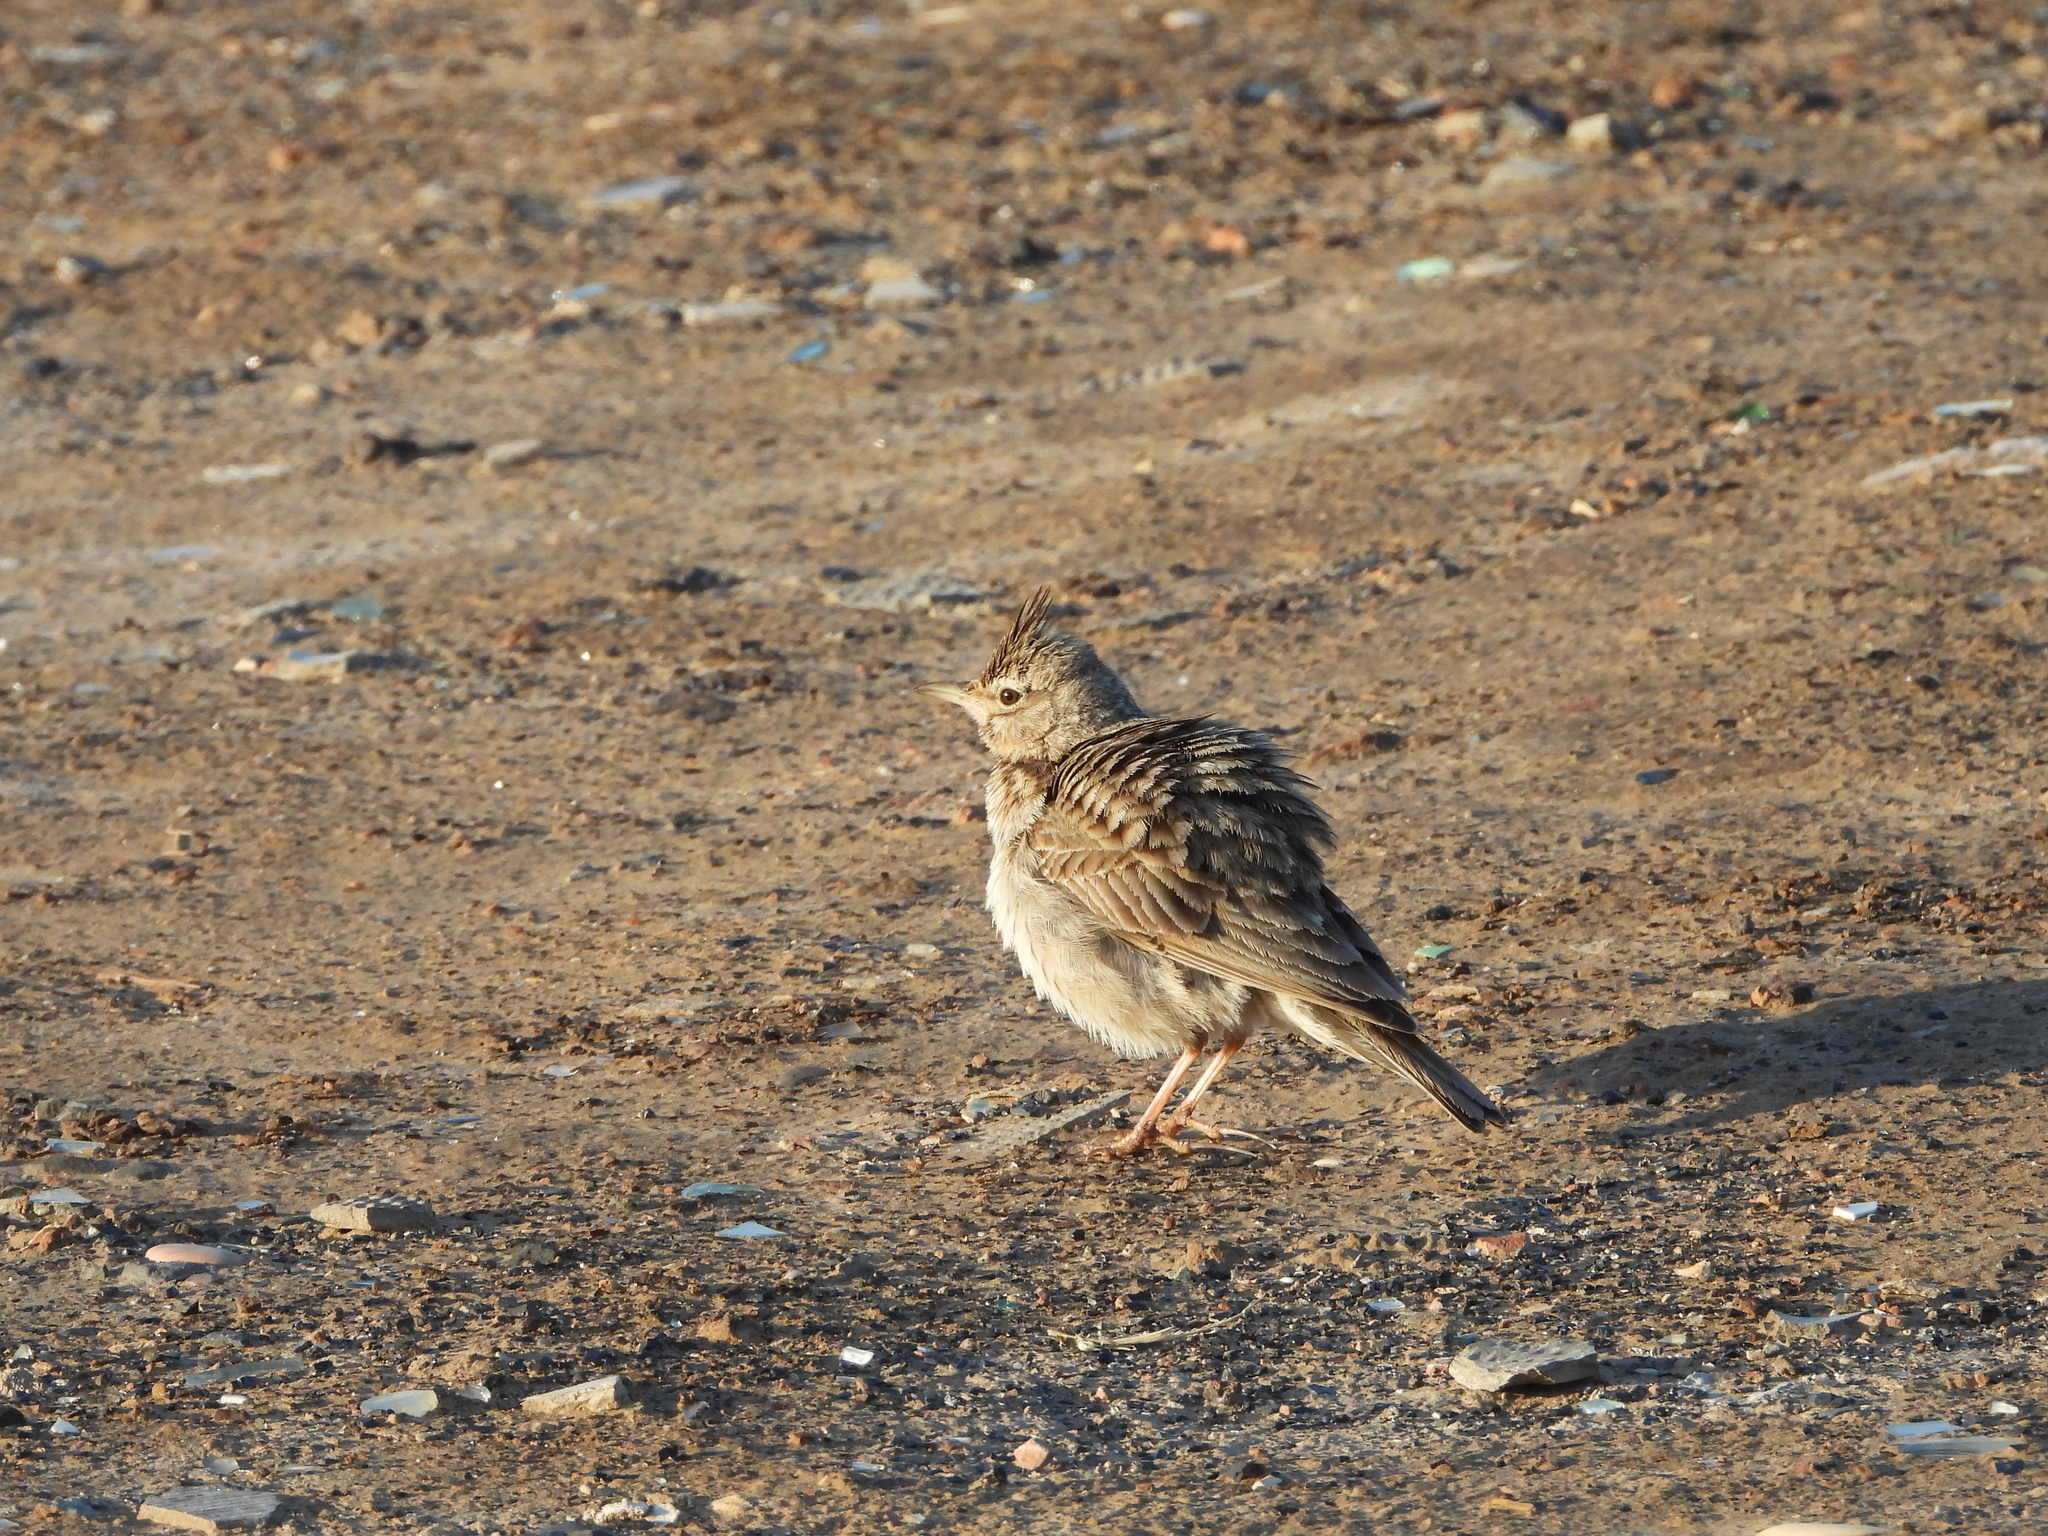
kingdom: Animalia
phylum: Chordata
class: Aves
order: Passeriformes
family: Alaudidae
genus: Galerida
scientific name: Galerida cristata
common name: Crested lark
